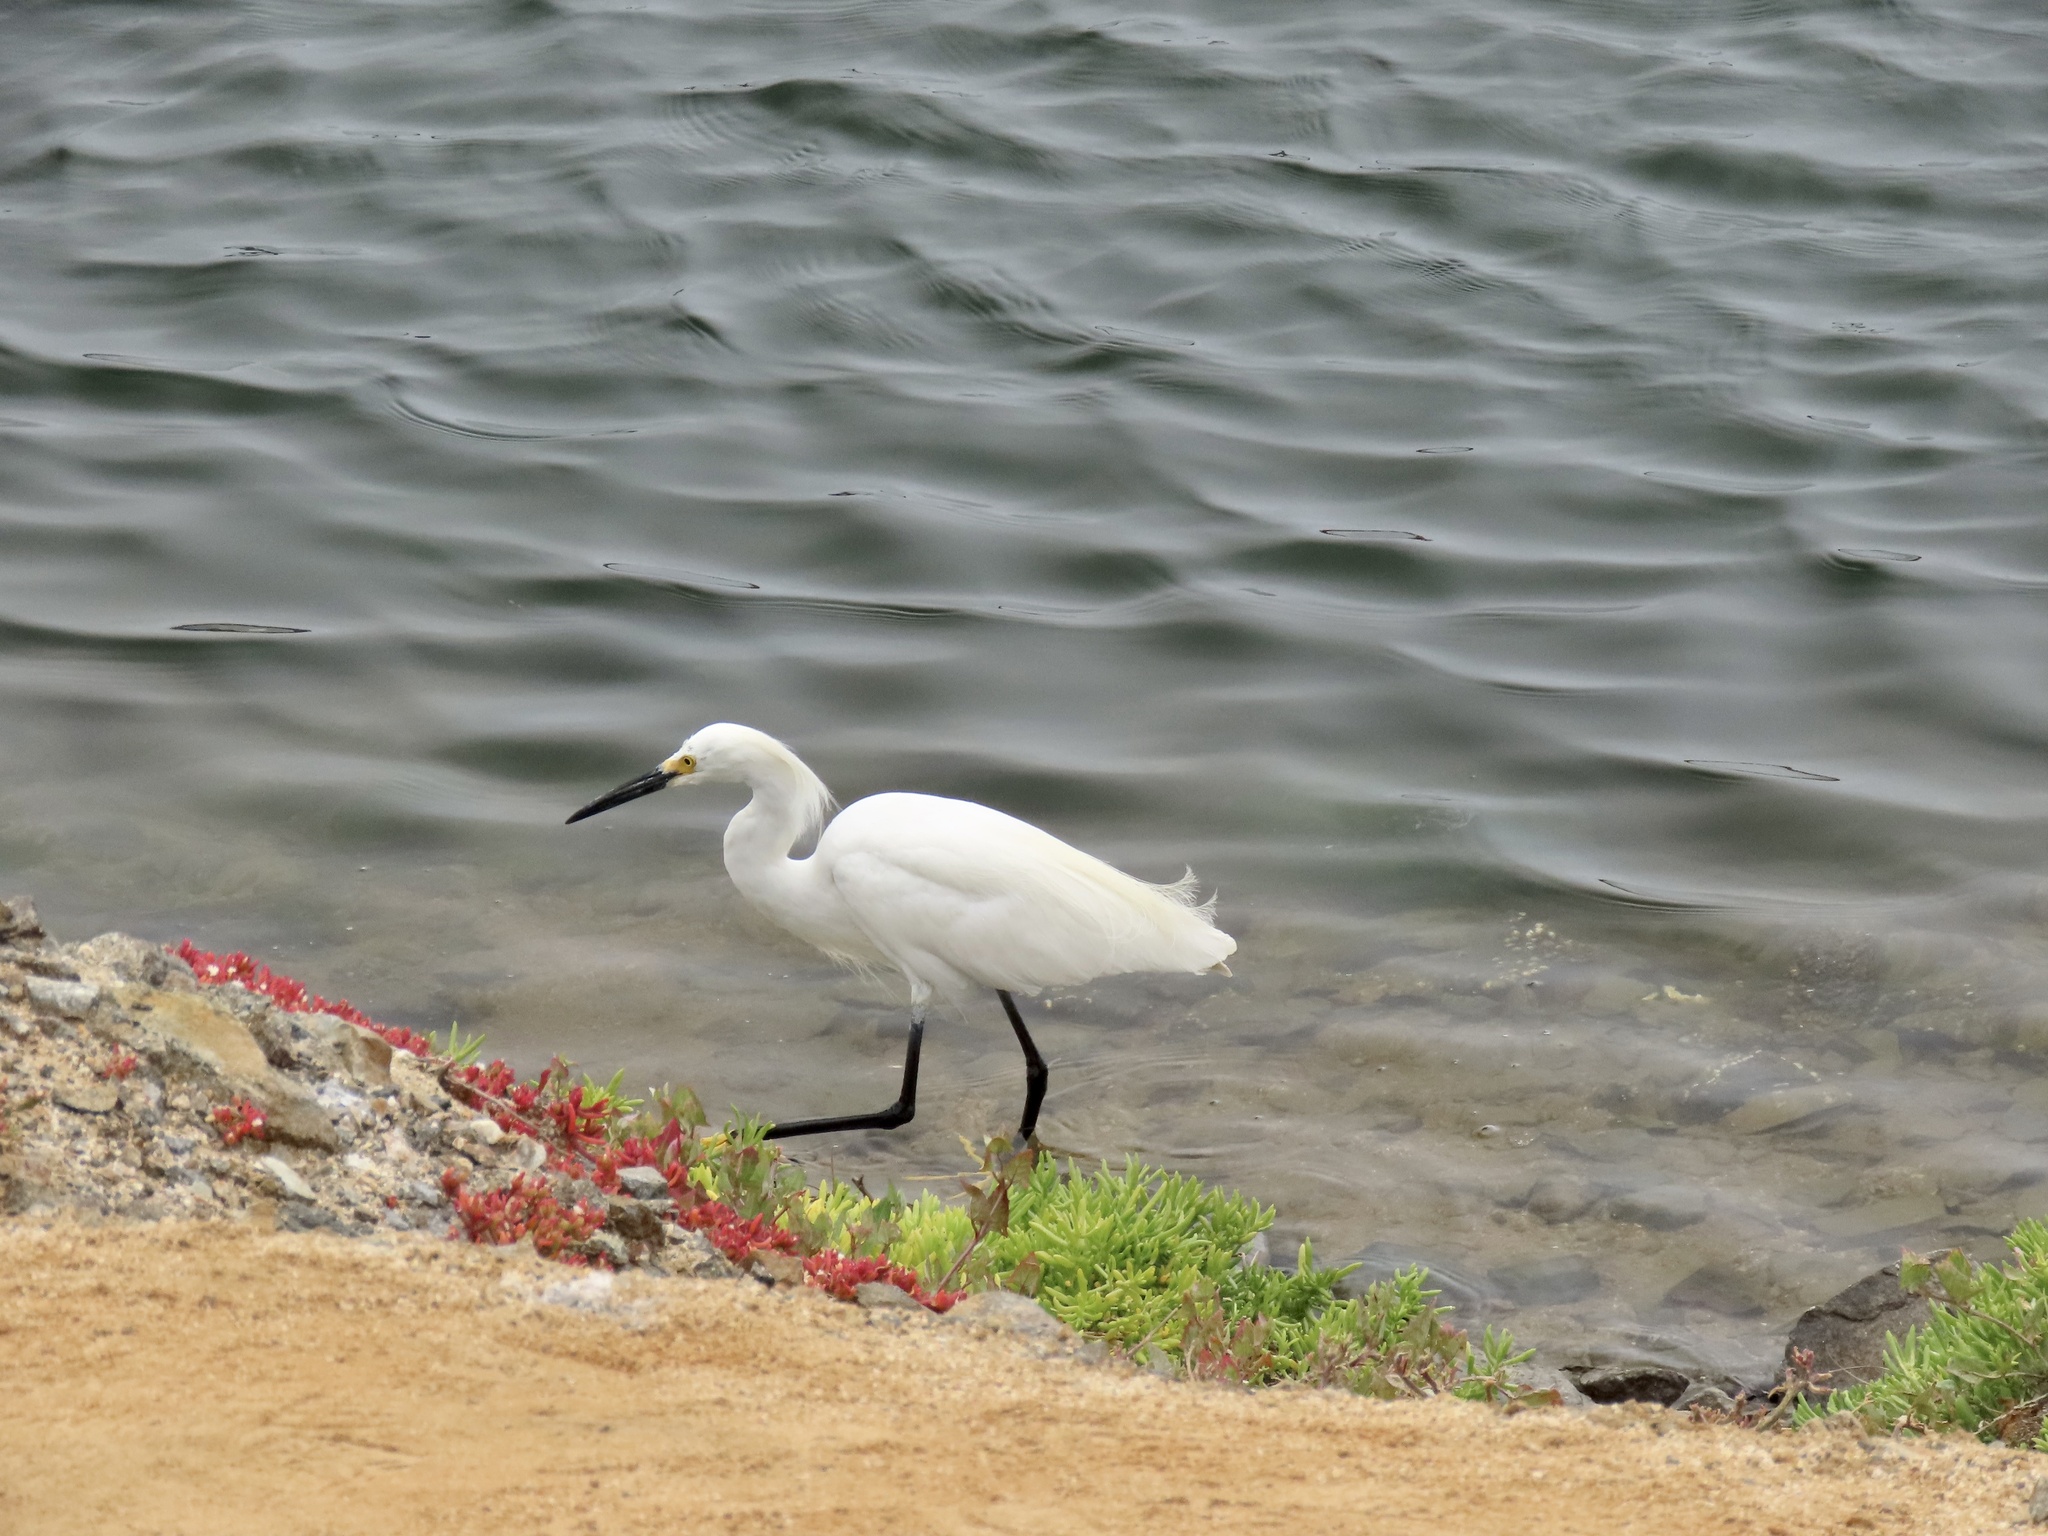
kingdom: Animalia
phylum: Chordata
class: Aves
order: Pelecaniformes
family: Ardeidae
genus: Egretta
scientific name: Egretta thula
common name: Snowy egret
